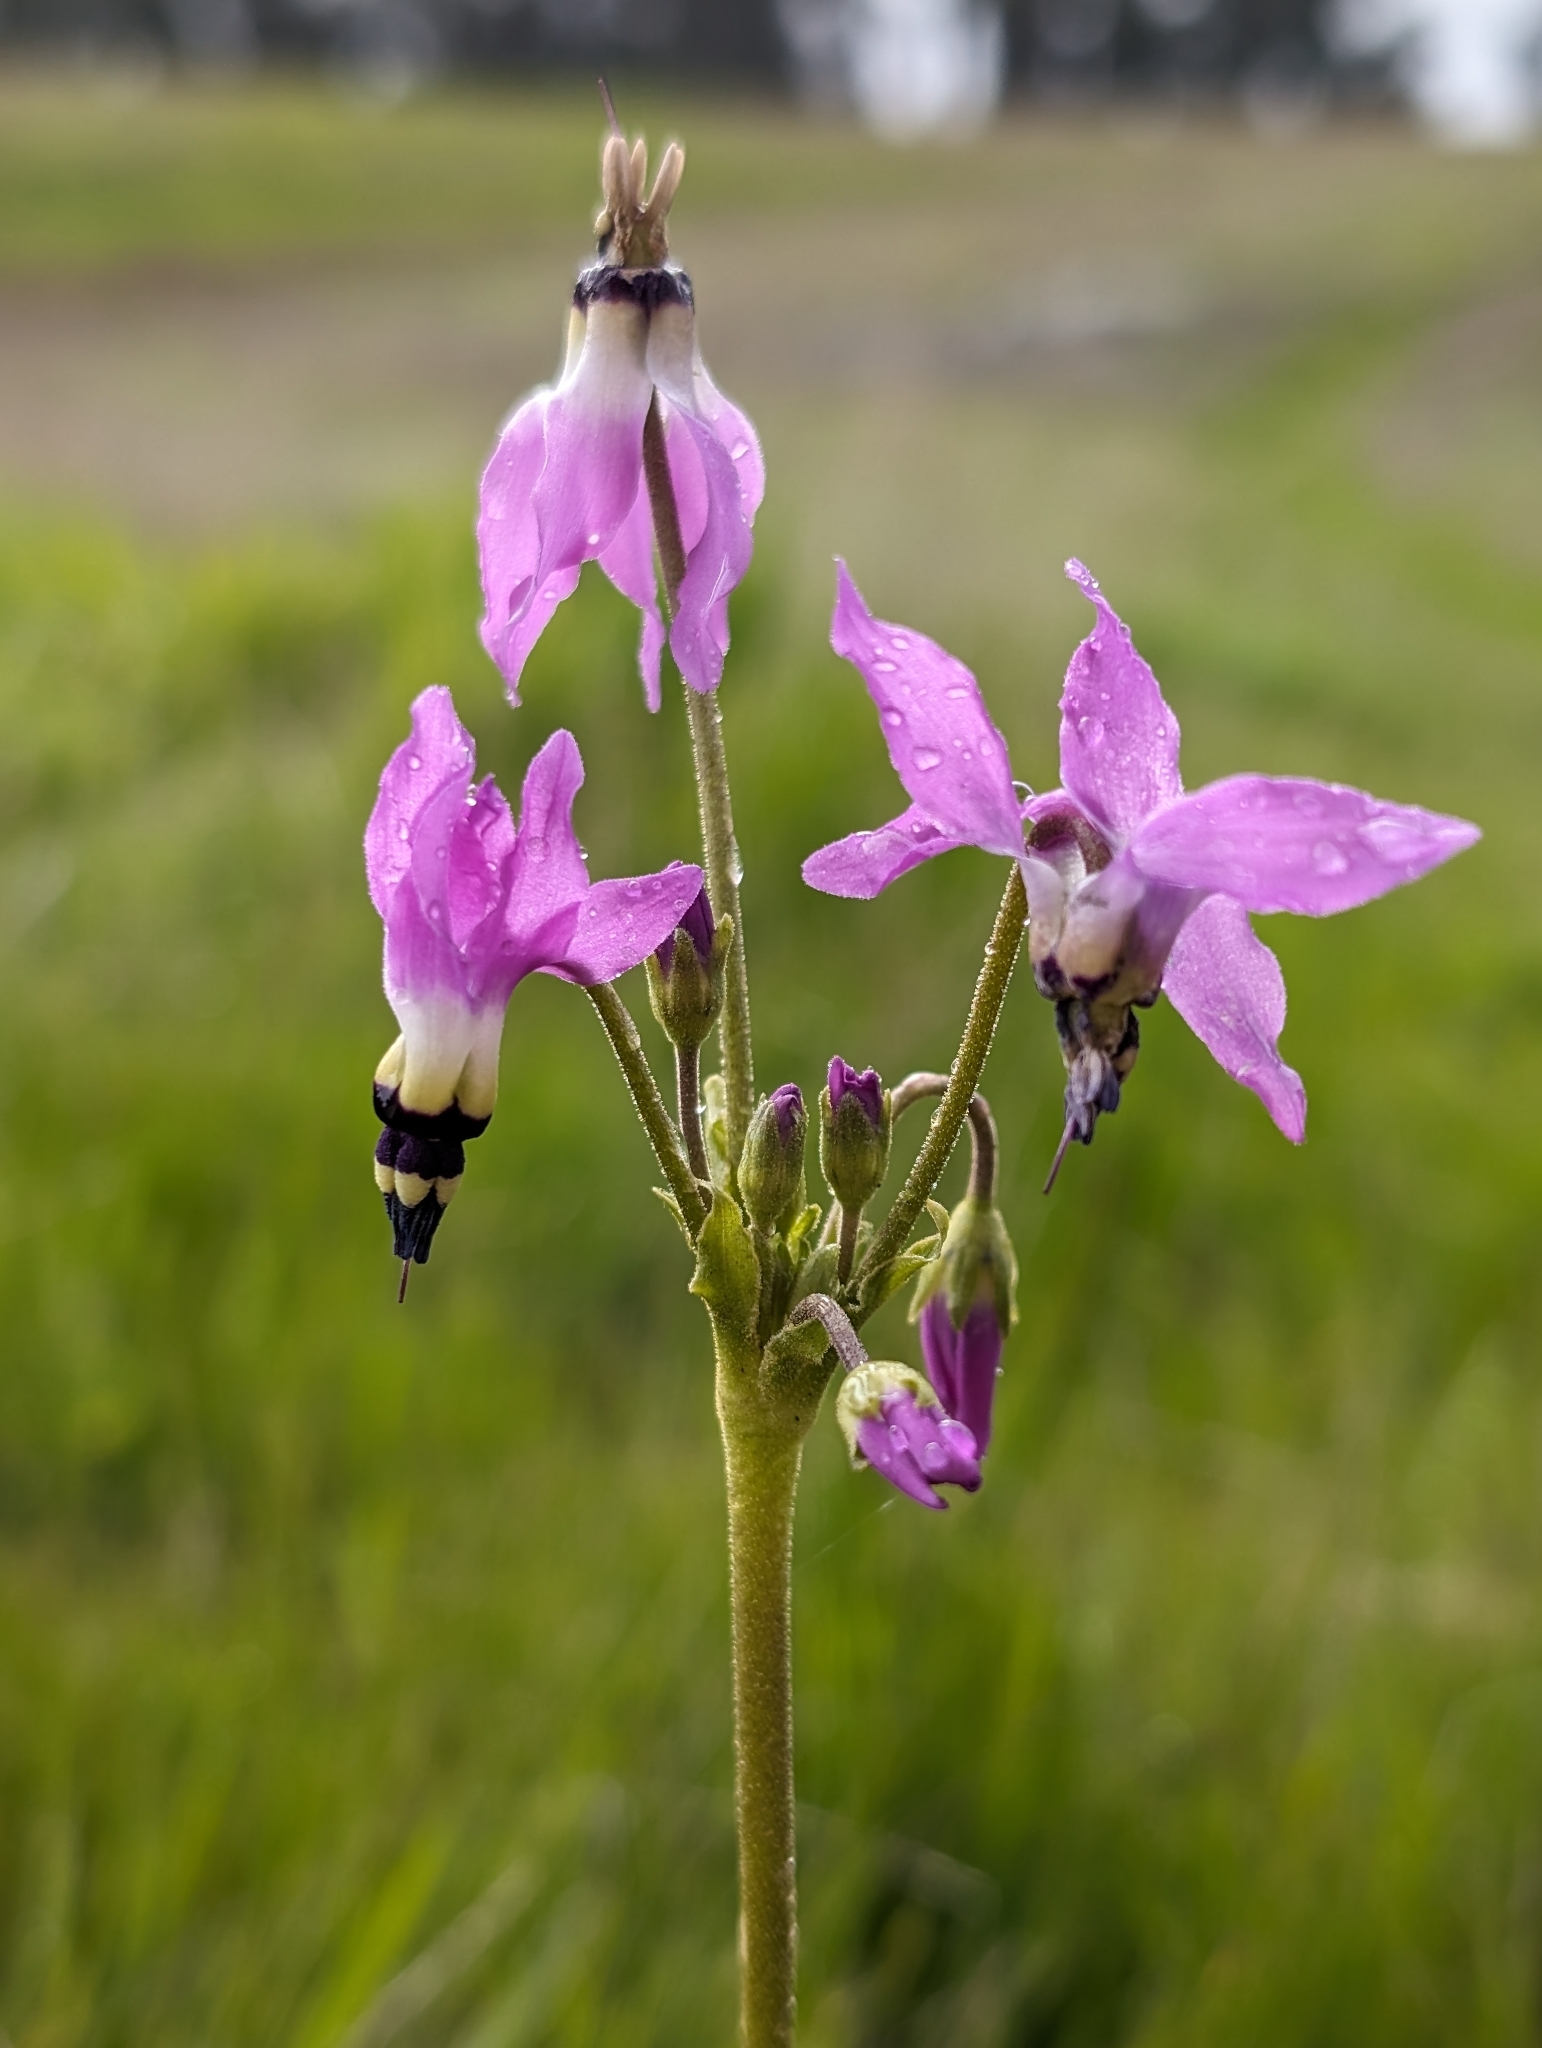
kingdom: Plantae
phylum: Tracheophyta
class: Magnoliopsida
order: Ericales
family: Primulaceae
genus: Dodecatheon
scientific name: Dodecatheon clevelandii
